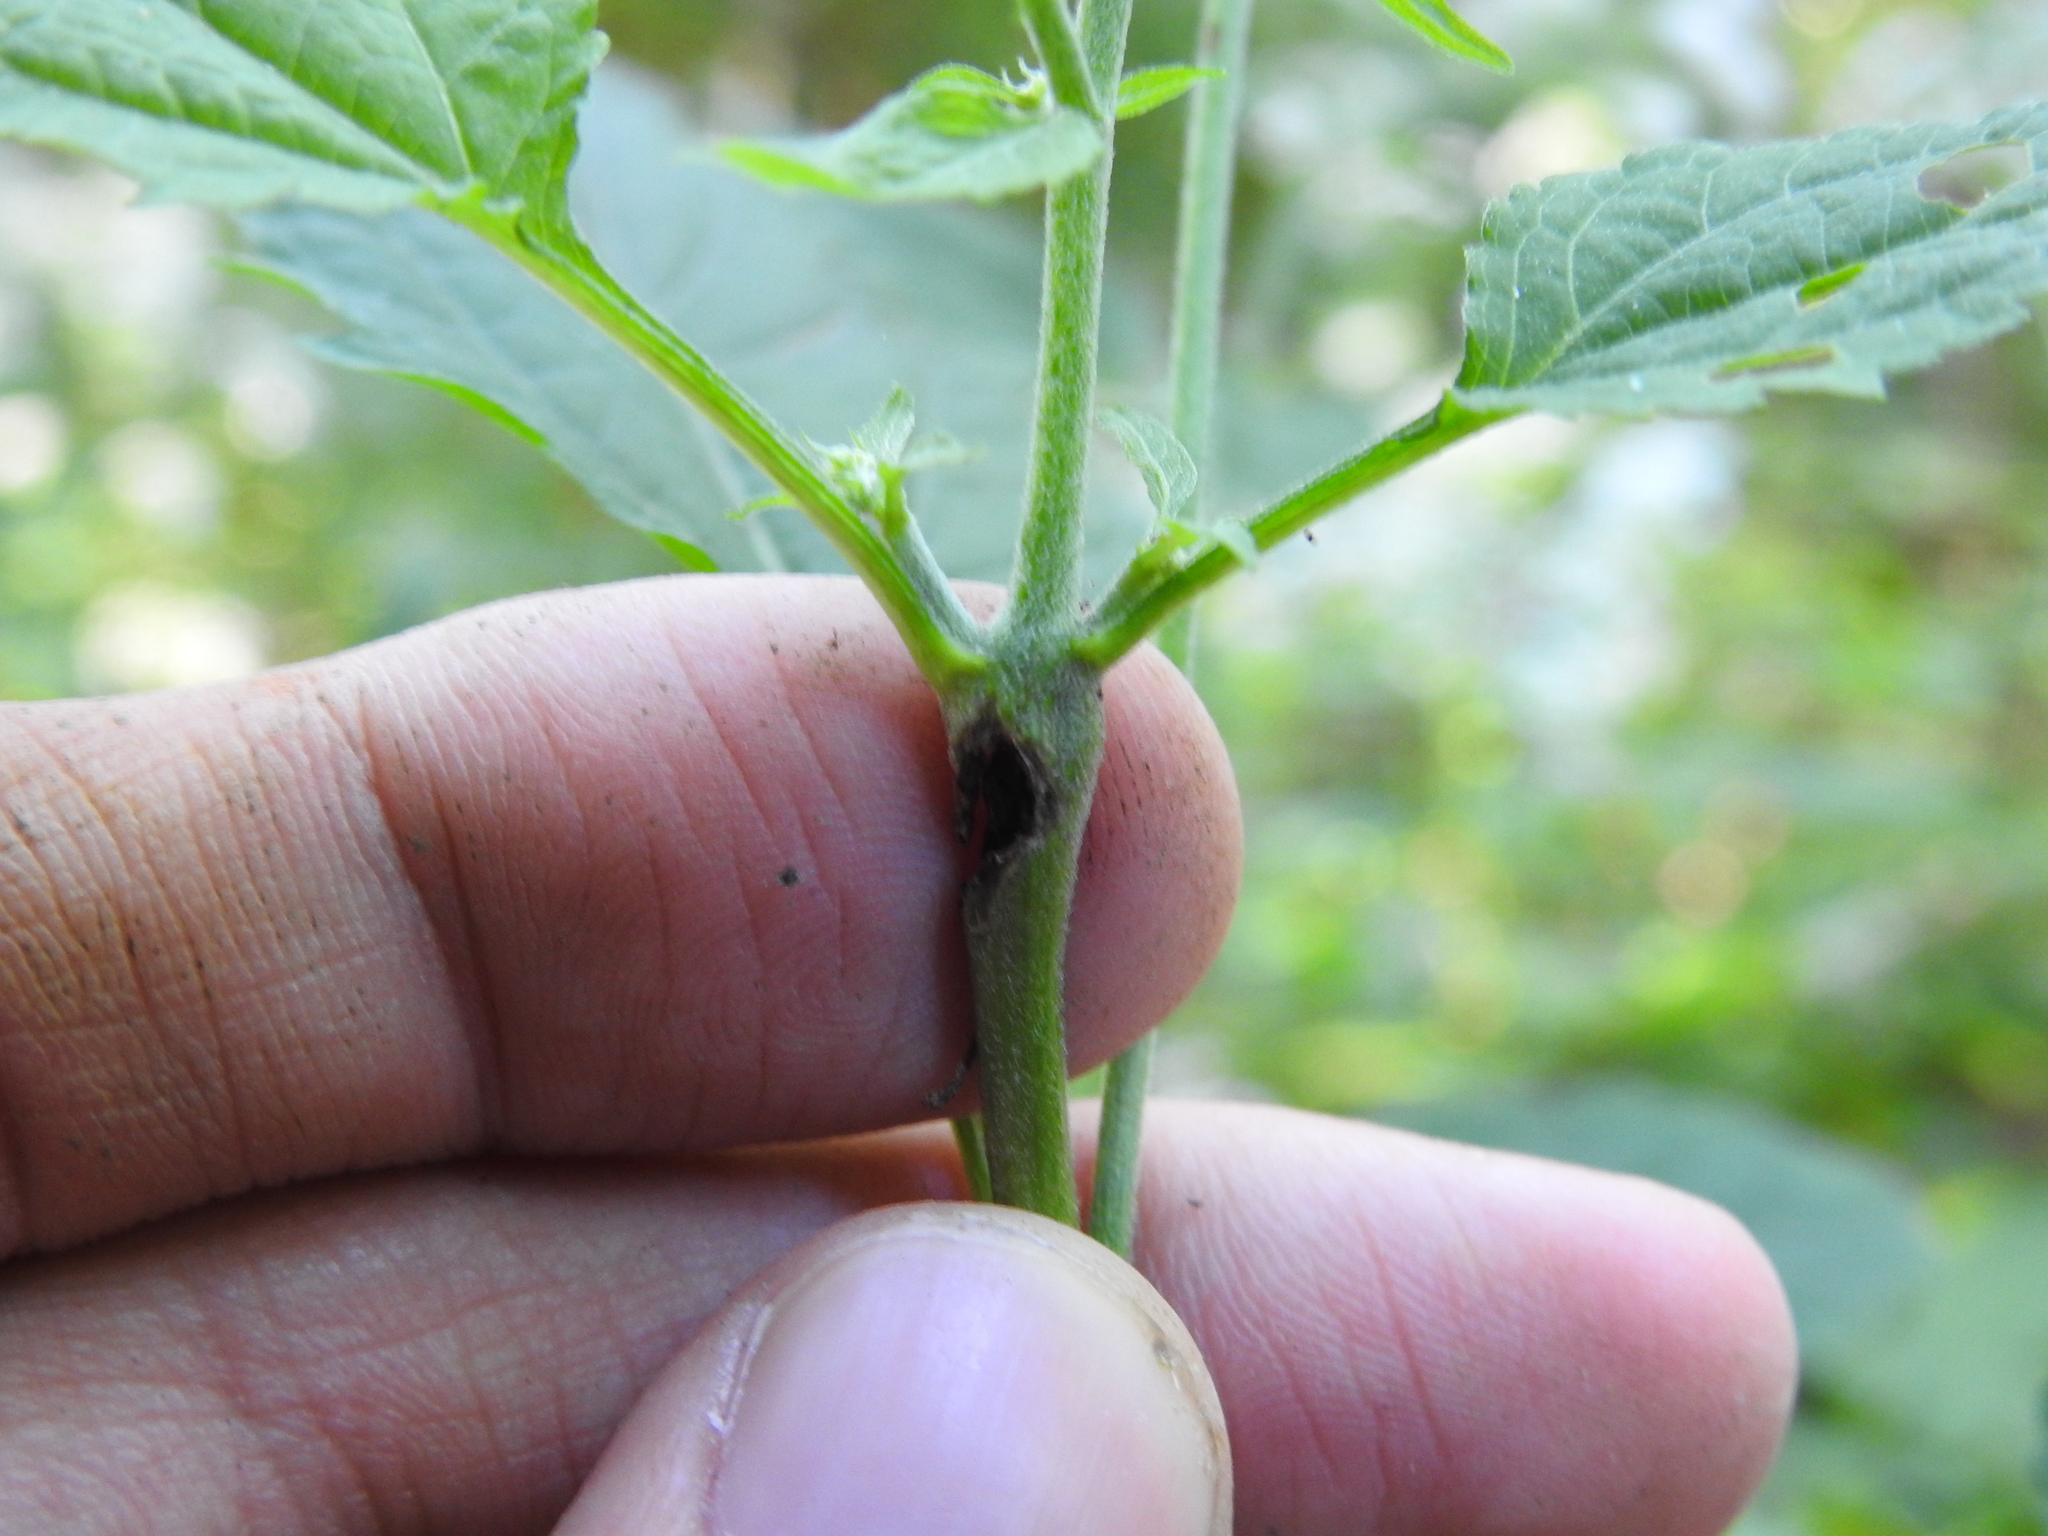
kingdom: Animalia
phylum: Arthropoda
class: Insecta
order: Diptera
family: Cecidomyiidae
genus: Neolasioptera
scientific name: Neolasioptera eupatorii
